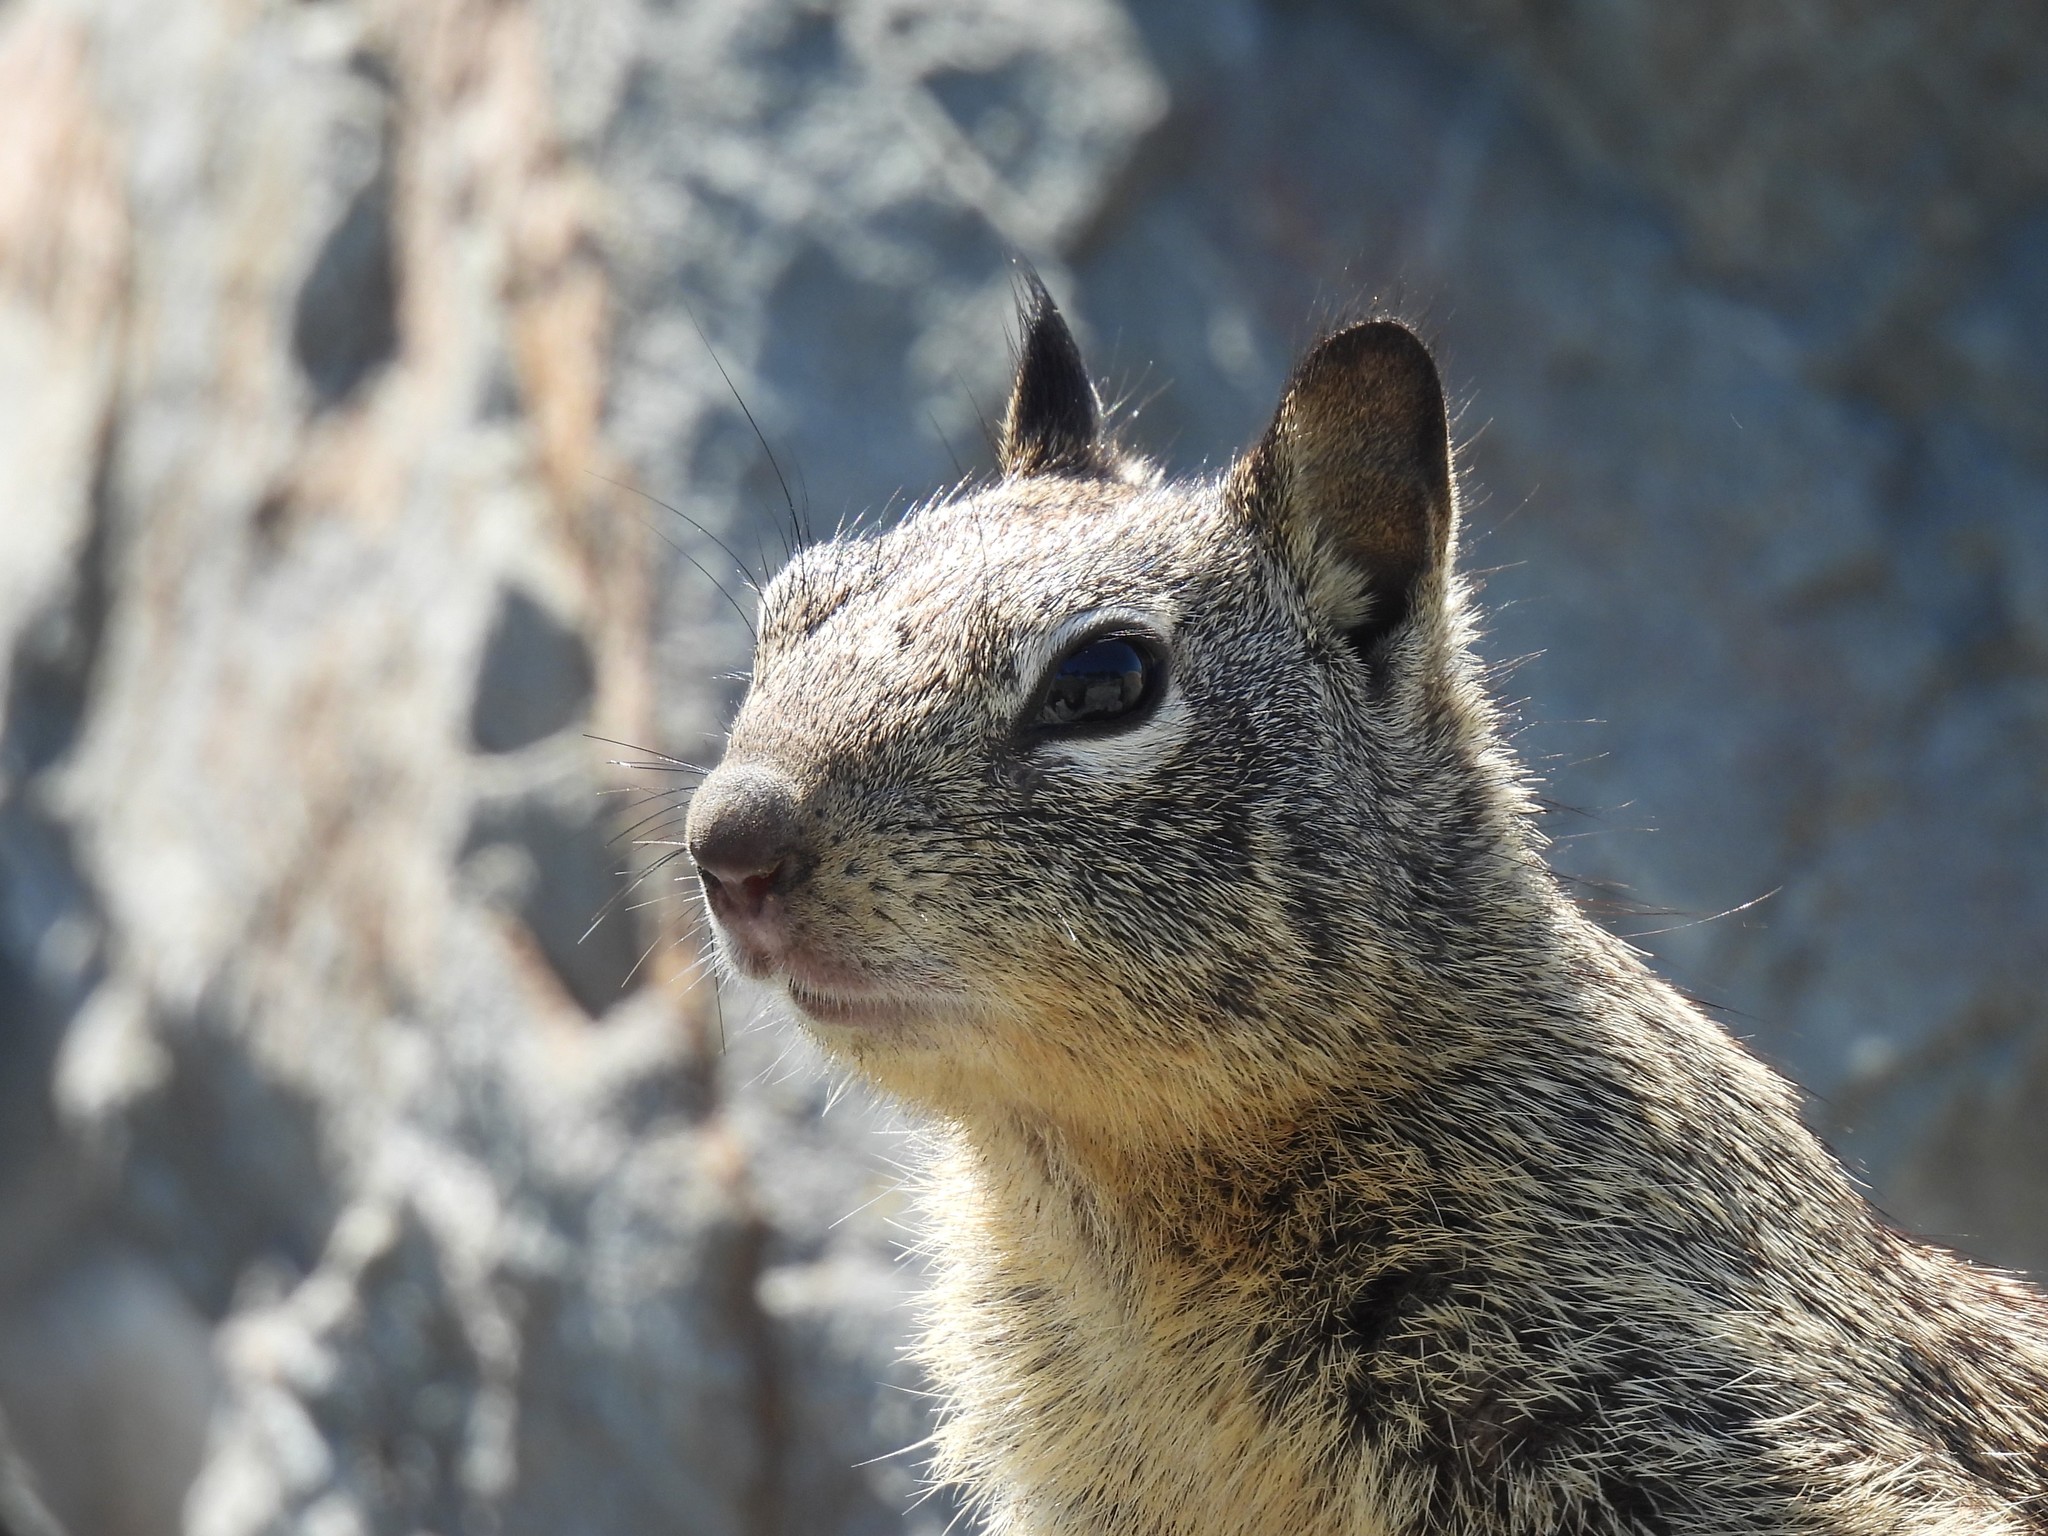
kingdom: Animalia
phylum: Chordata
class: Mammalia
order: Rodentia
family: Sciuridae
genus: Otospermophilus
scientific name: Otospermophilus beecheyi
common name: California ground squirrel
